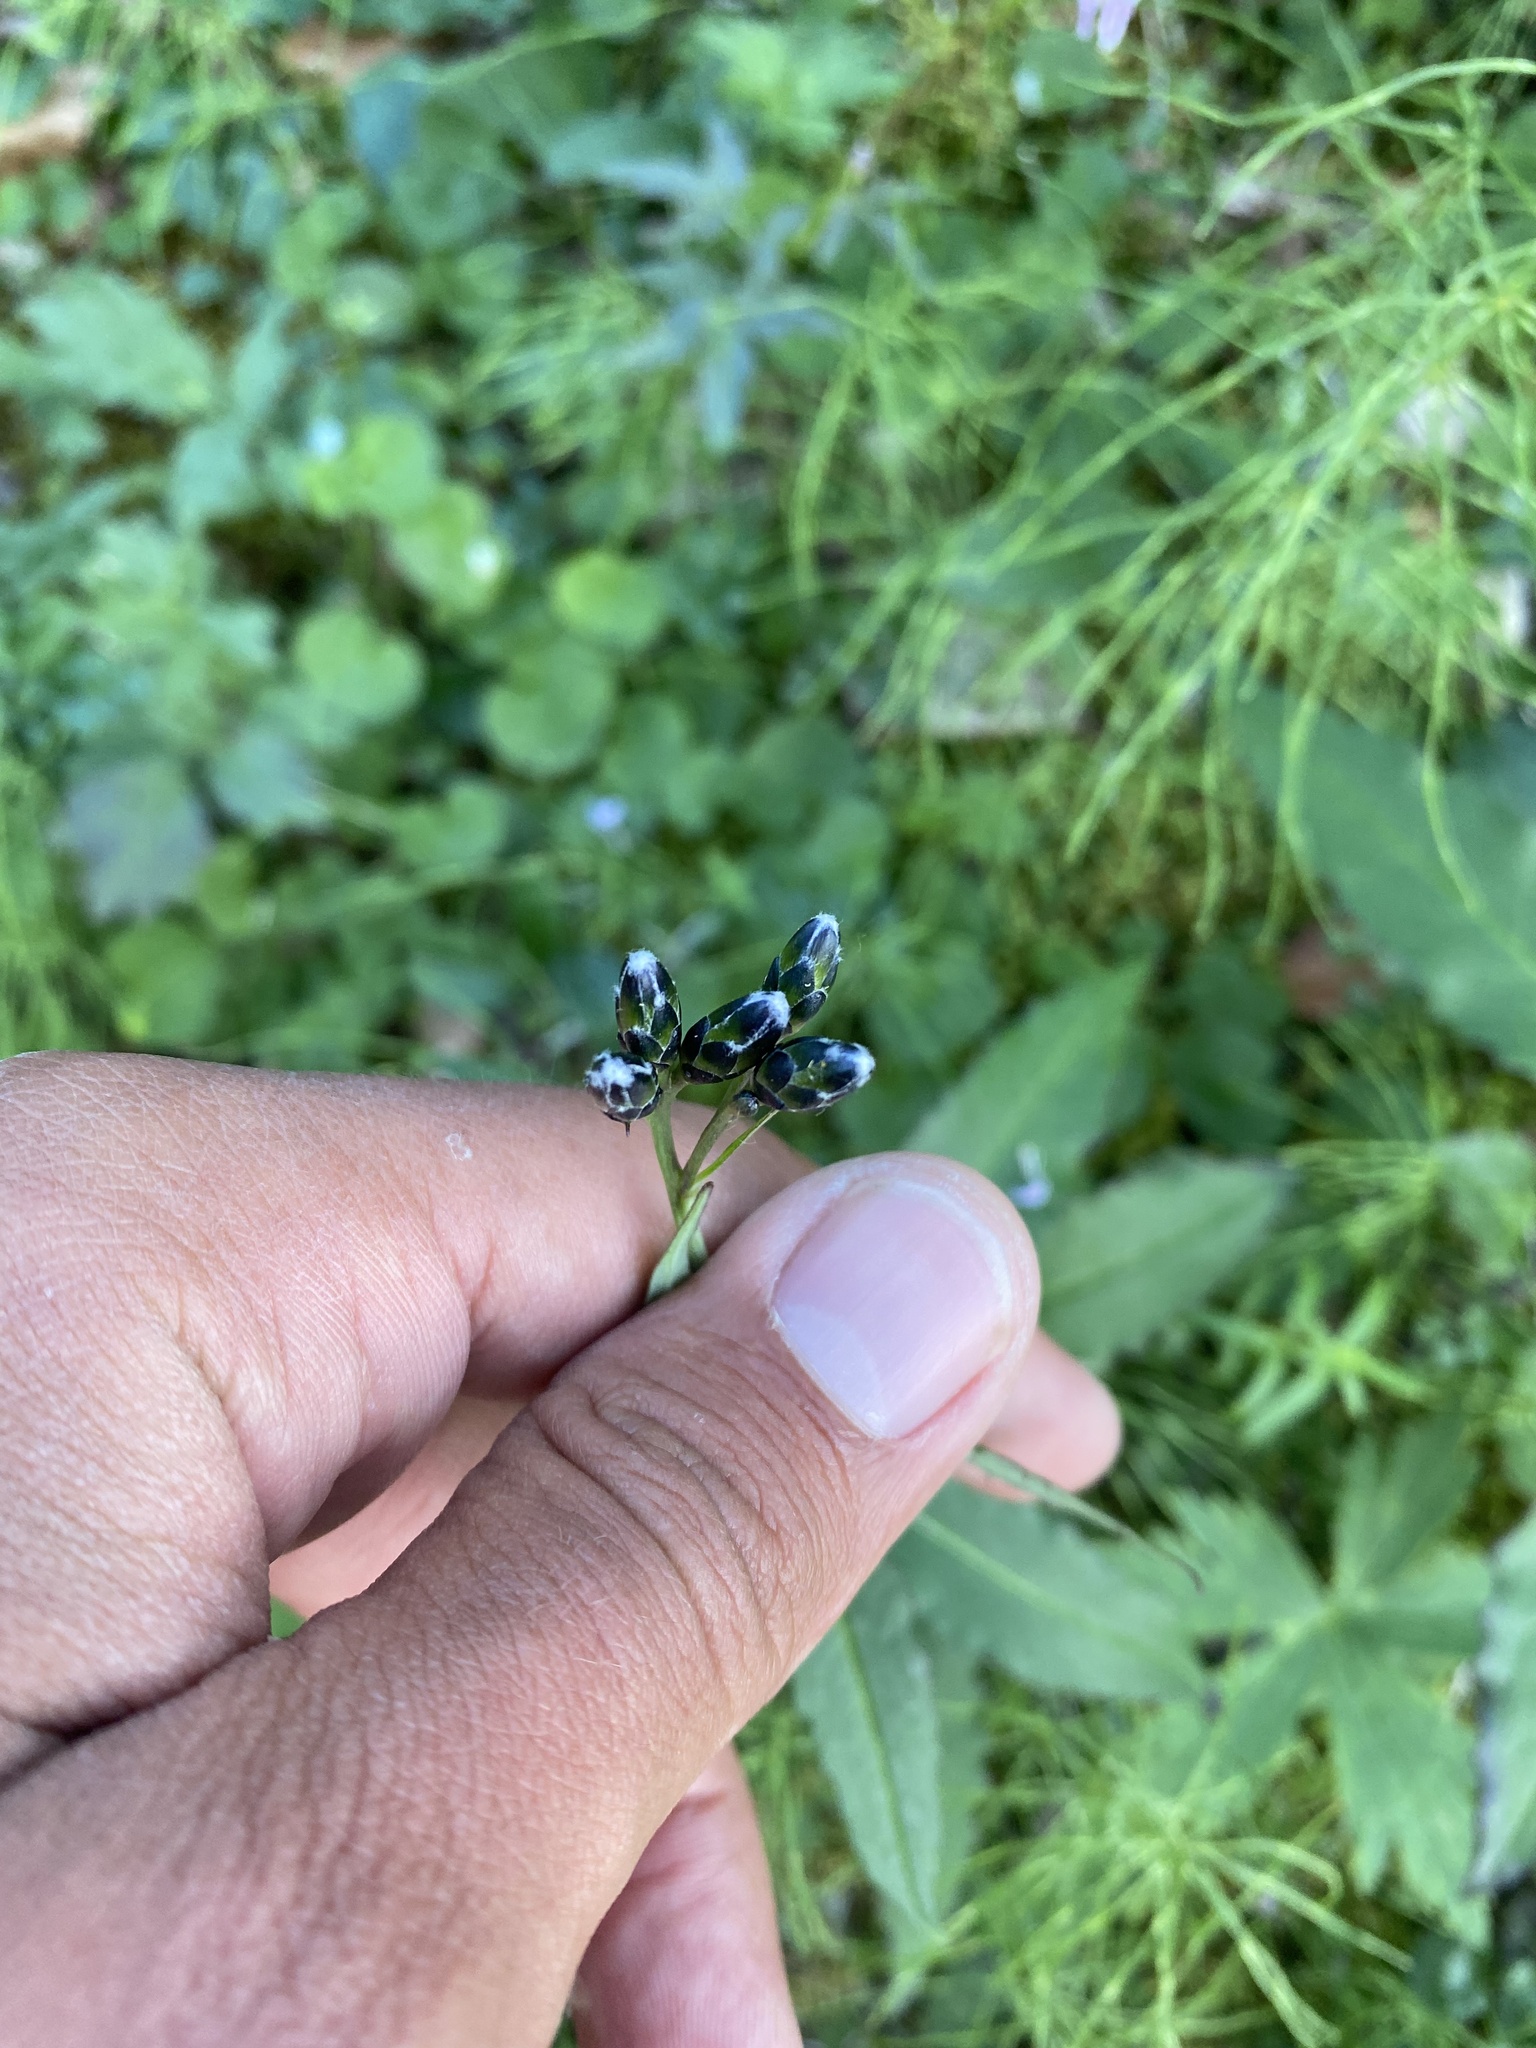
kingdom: Plantae
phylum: Tracheophyta
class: Magnoliopsida
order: Asterales
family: Asteraceae
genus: Saussurea
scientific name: Saussurea parviflora
